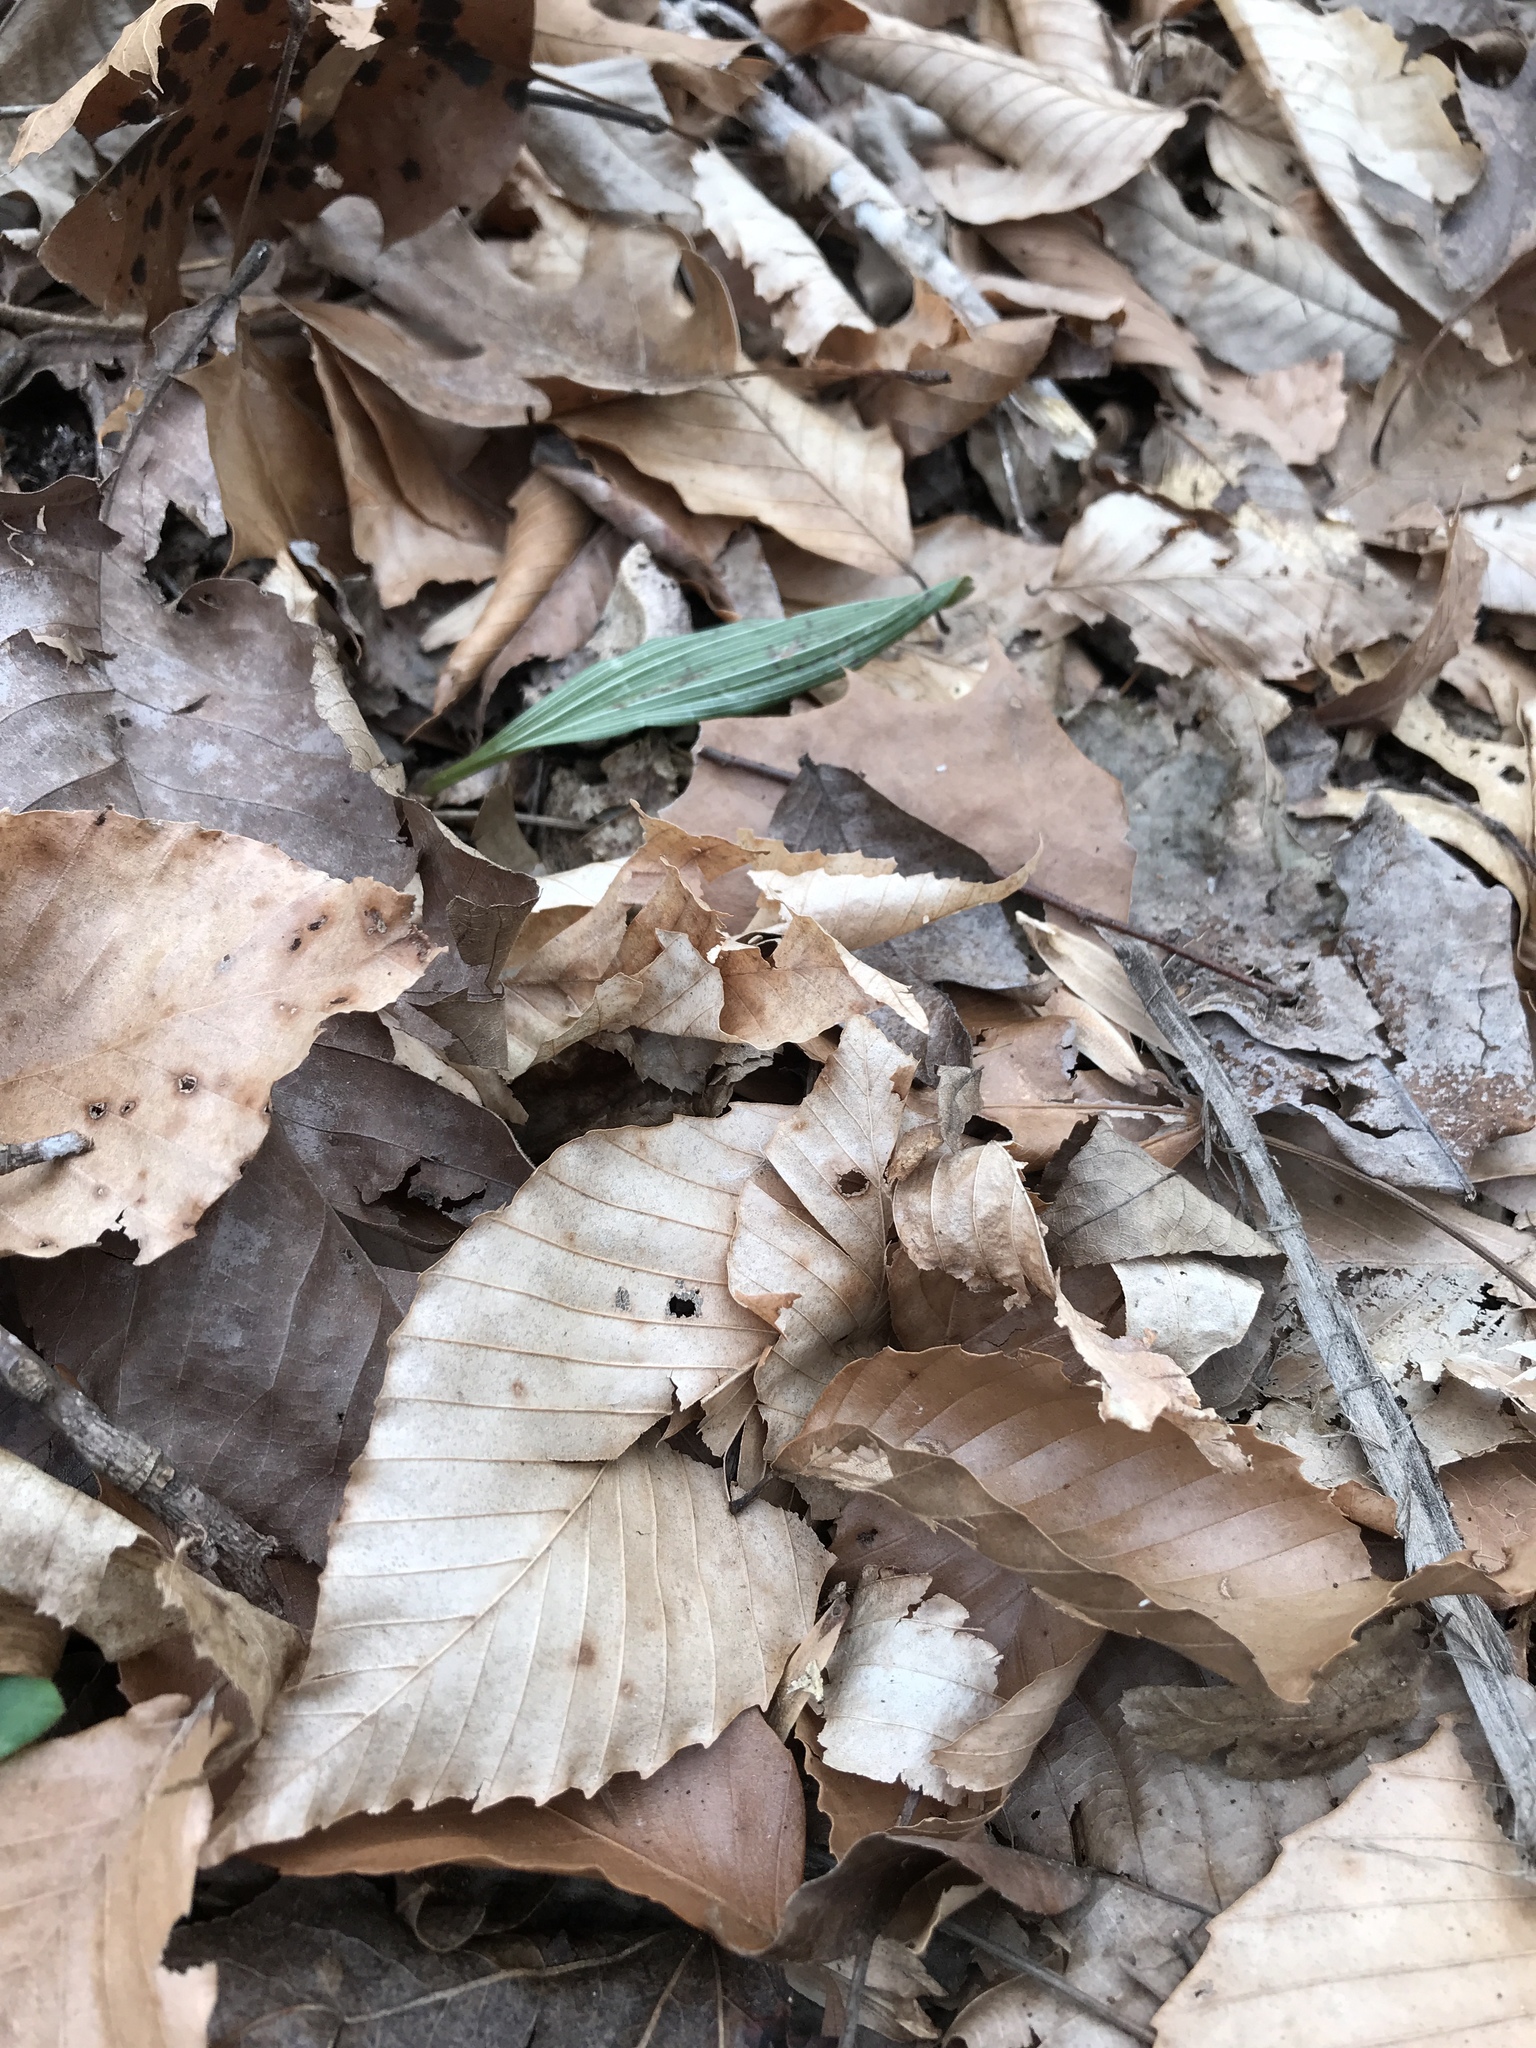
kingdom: Plantae
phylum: Tracheophyta
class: Liliopsida
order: Asparagales
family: Orchidaceae
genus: Aplectrum
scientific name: Aplectrum hyemale
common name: Adam-and-eve
